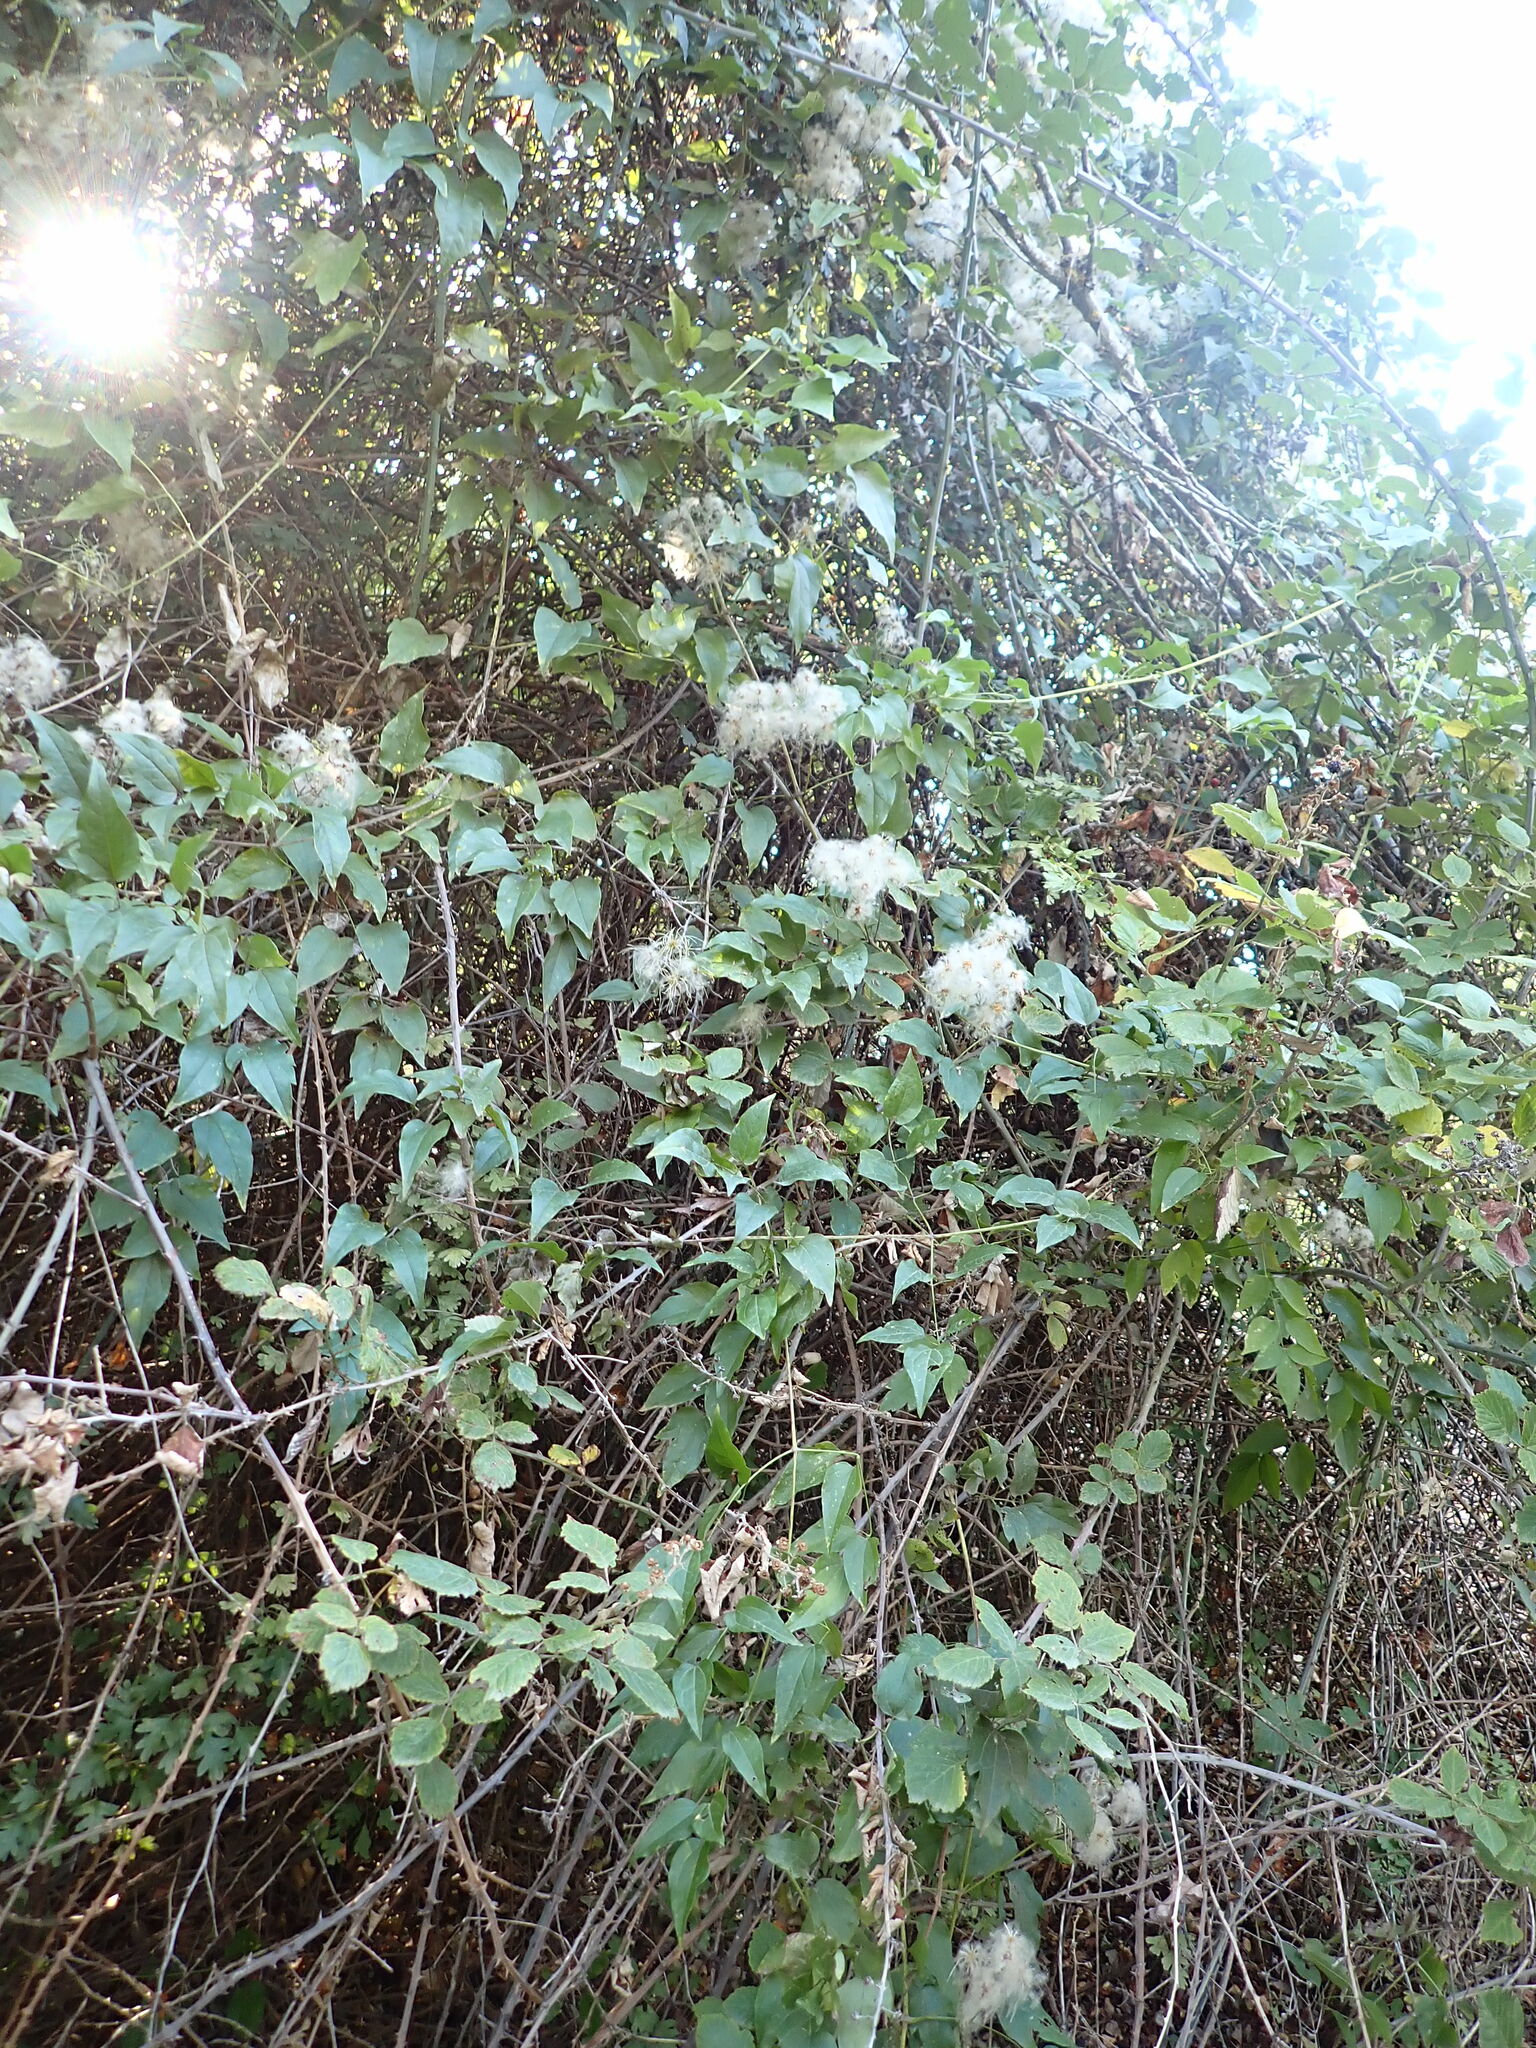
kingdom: Plantae
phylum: Tracheophyta
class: Magnoliopsida
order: Ranunculales
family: Ranunculaceae
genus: Clematis
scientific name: Clematis vitalba
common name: Evergreen clematis
